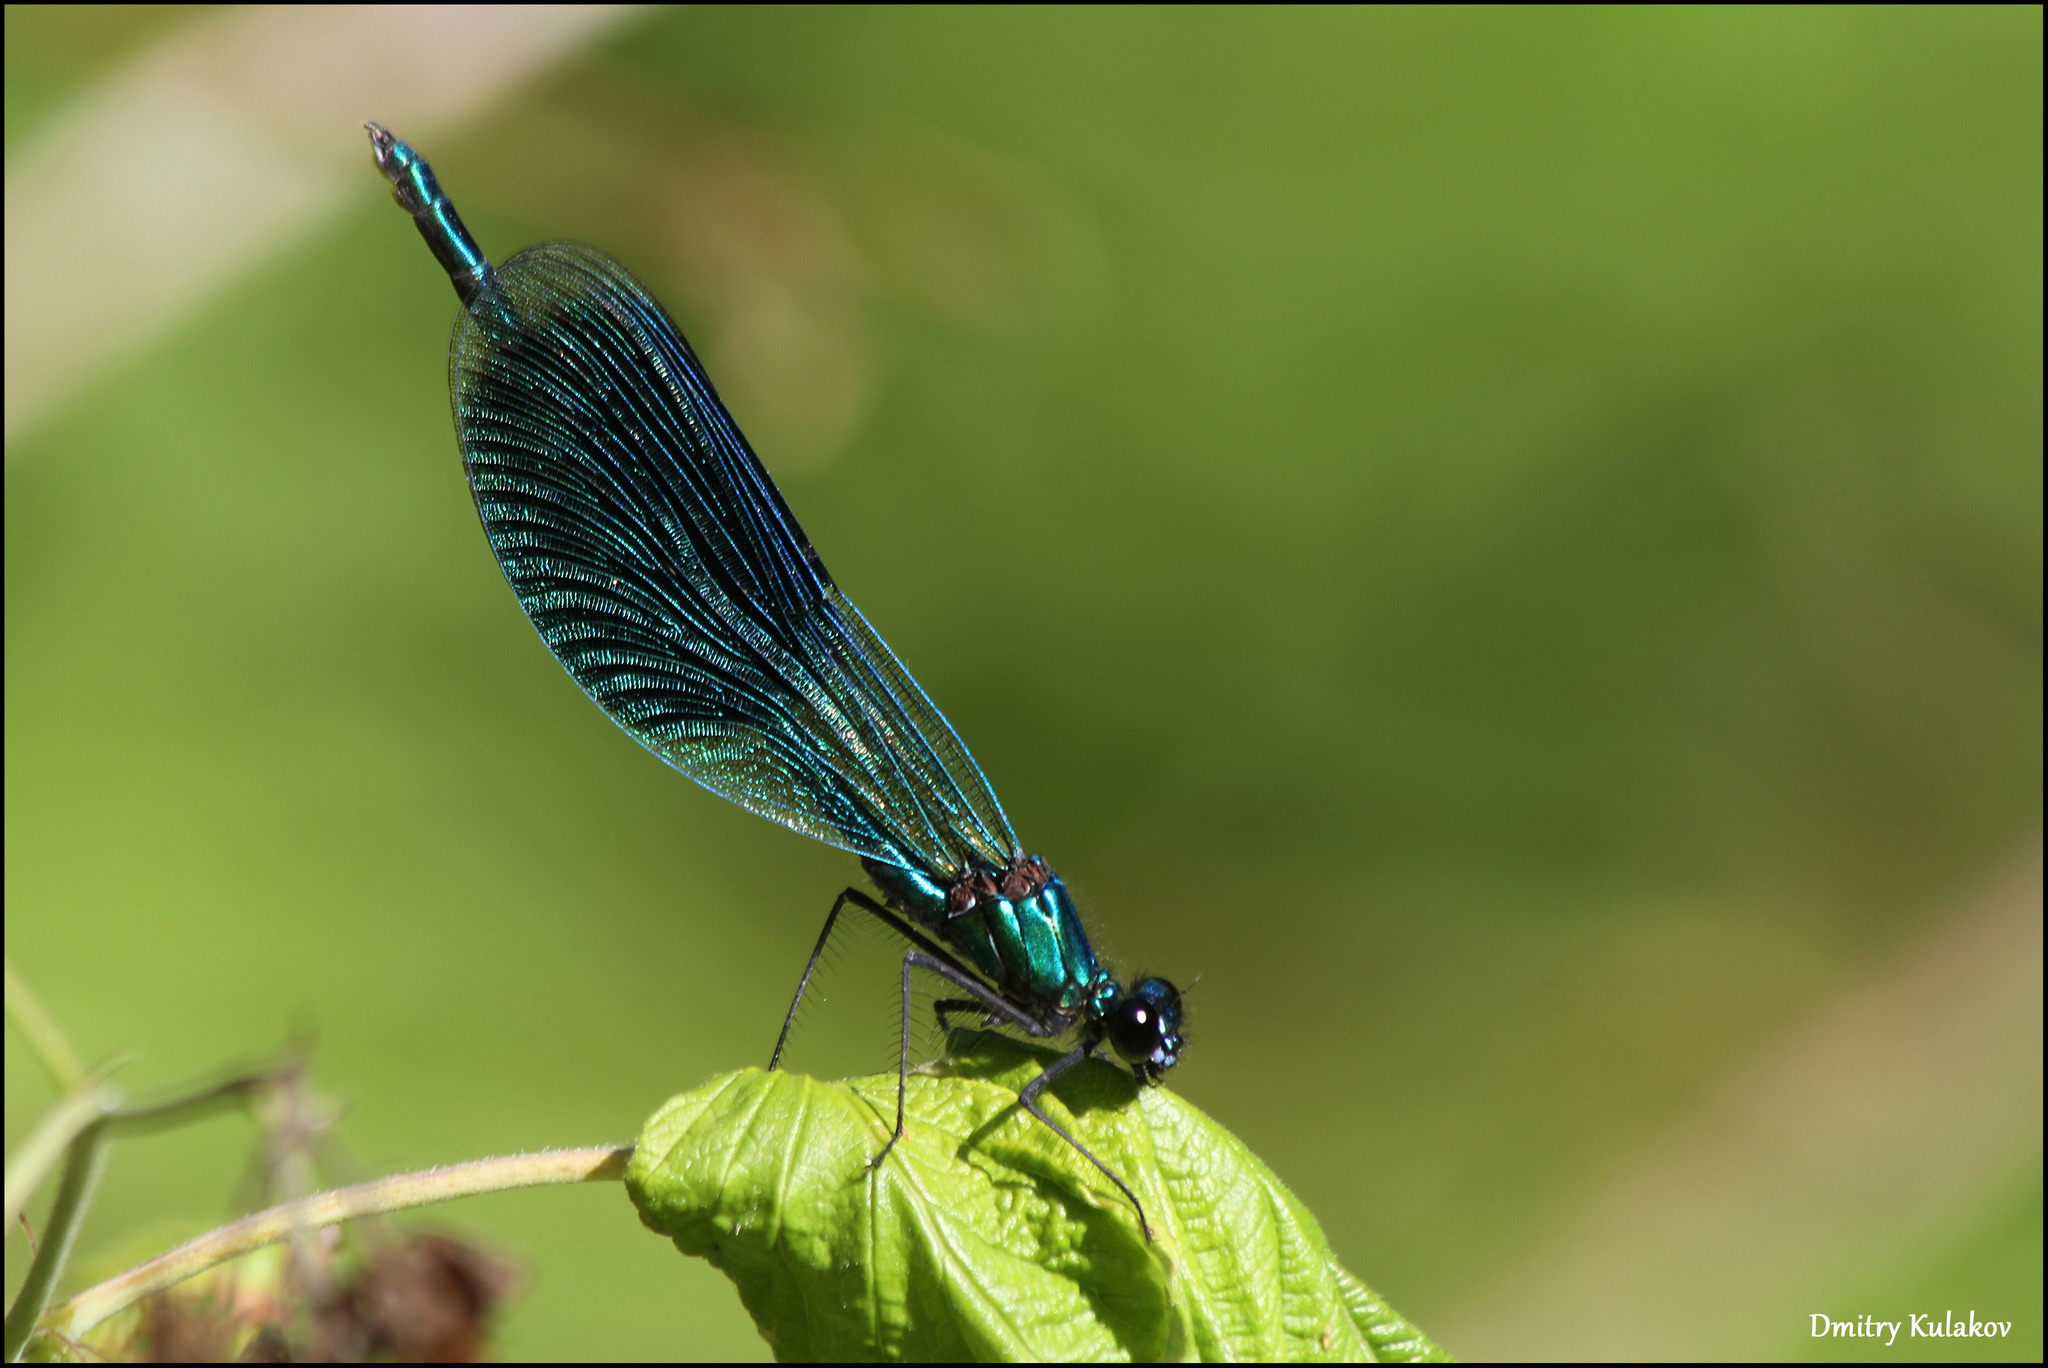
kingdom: Animalia
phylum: Arthropoda
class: Insecta
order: Odonata
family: Calopterygidae
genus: Calopteryx
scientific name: Calopteryx splendens
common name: Banded demoiselle
